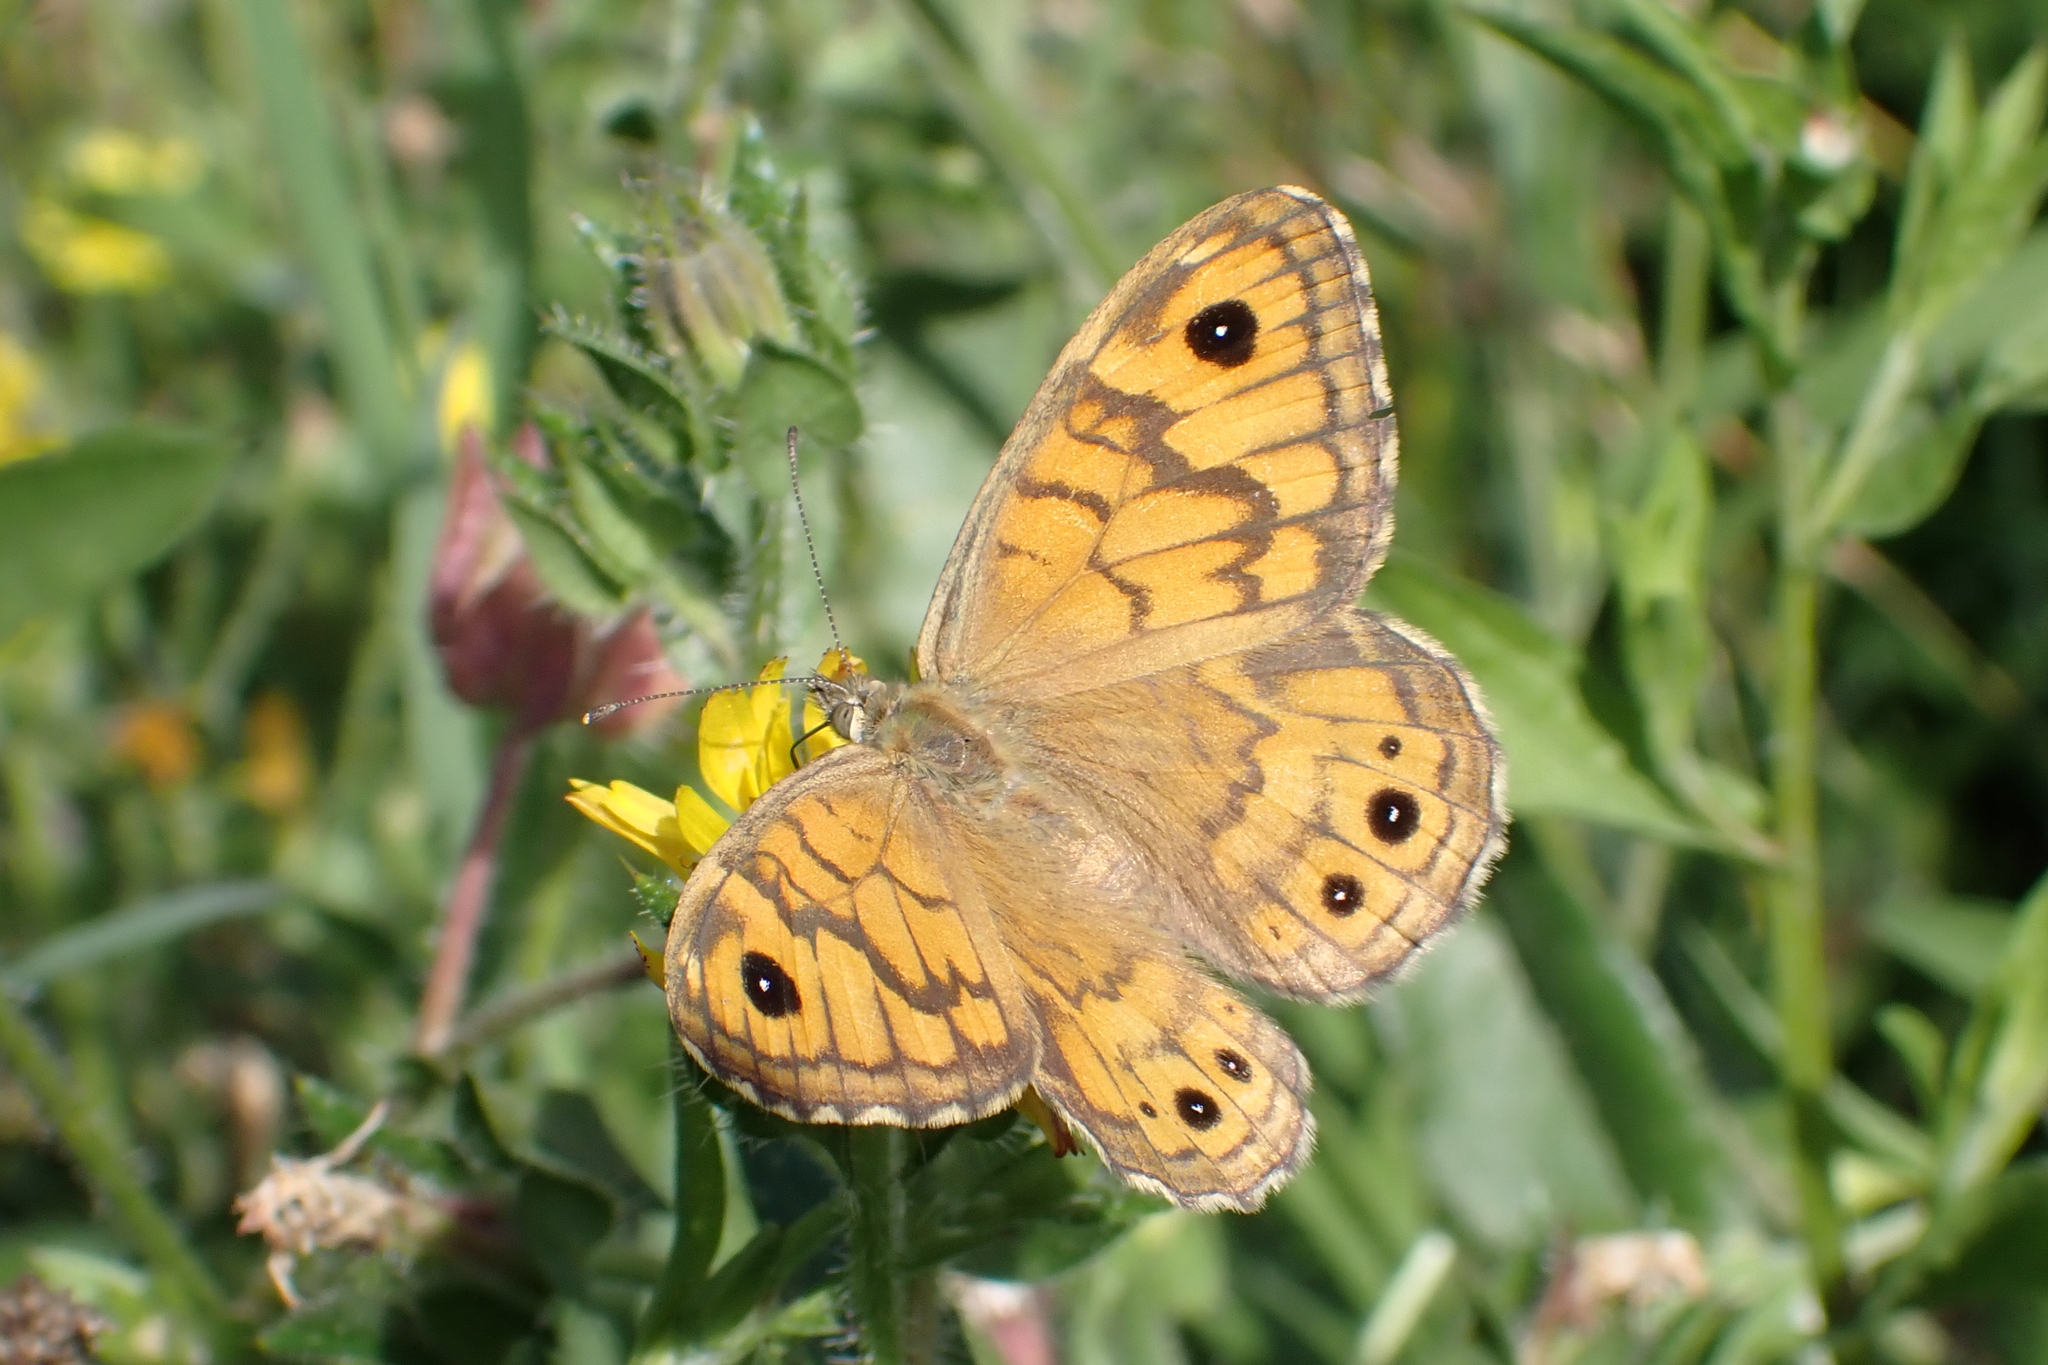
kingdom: Animalia
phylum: Arthropoda
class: Insecta
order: Lepidoptera
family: Nymphalidae
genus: Pararge
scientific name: Pararge Lasiommata megera
